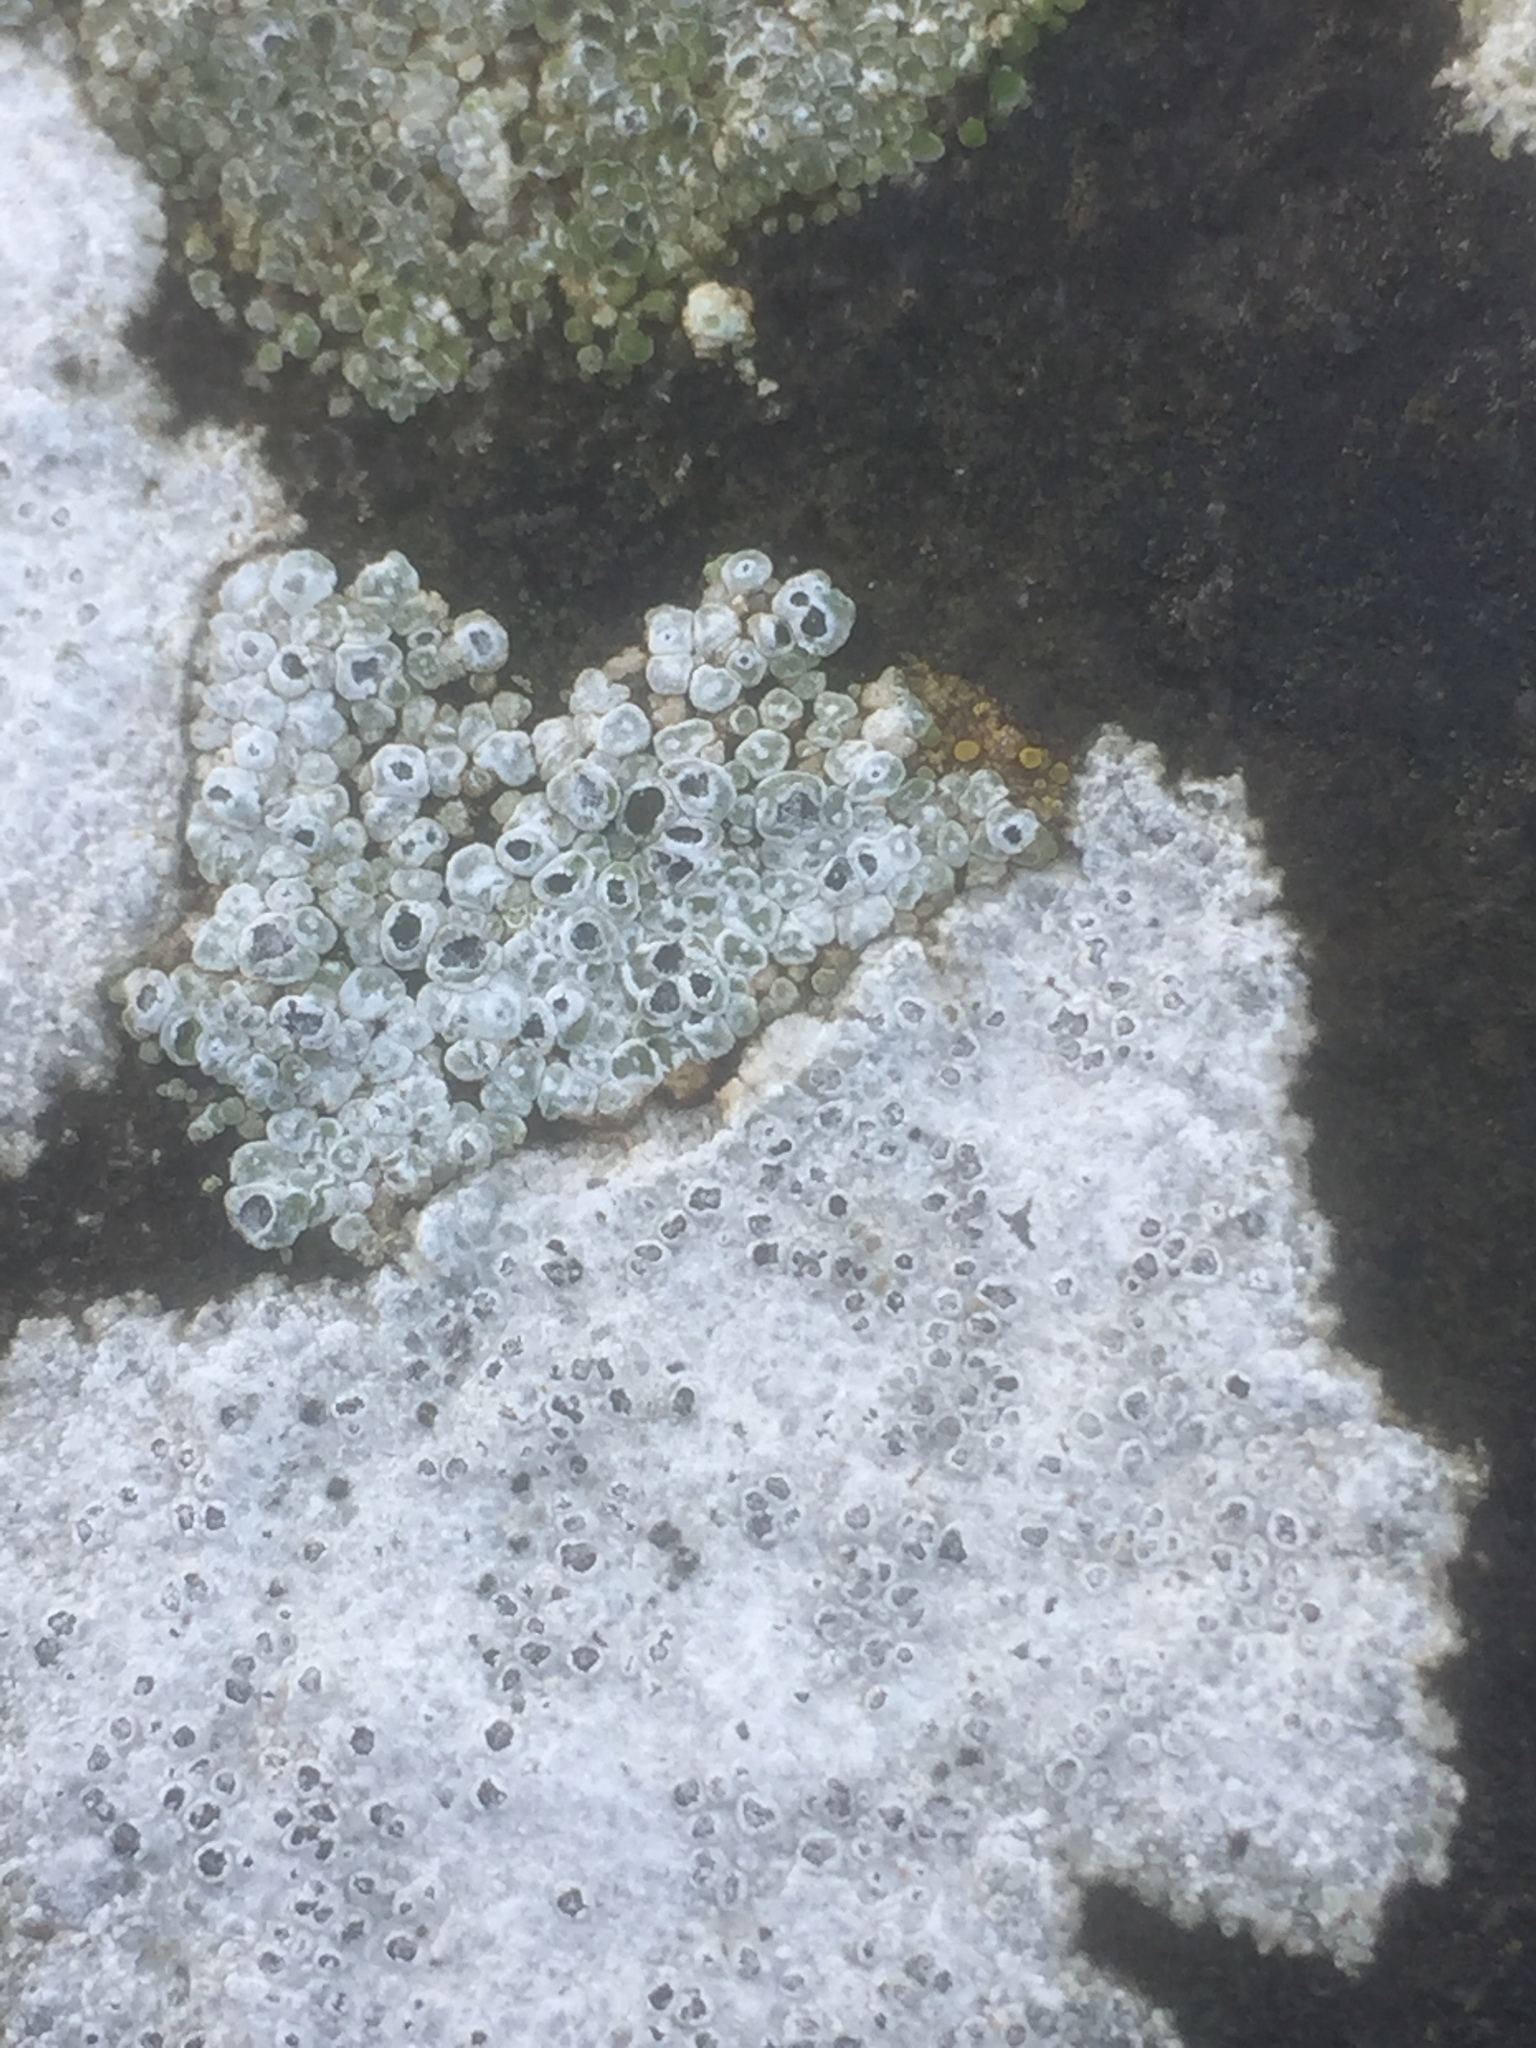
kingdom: Fungi
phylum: Ascomycota
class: Lecanoromycetes
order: Pertusariales
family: Megasporaceae
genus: Circinaria
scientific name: Circinaria contorta
